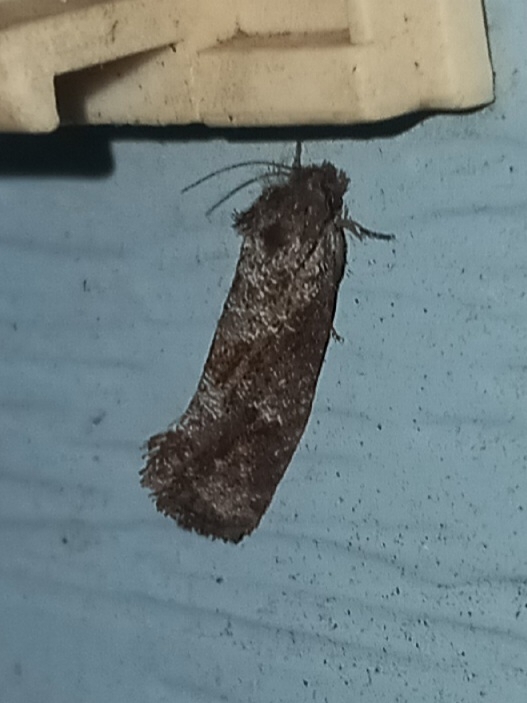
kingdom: Animalia
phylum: Arthropoda
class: Insecta
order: Lepidoptera
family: Tineidae
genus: Acrolophus
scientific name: Acrolophus panamae
